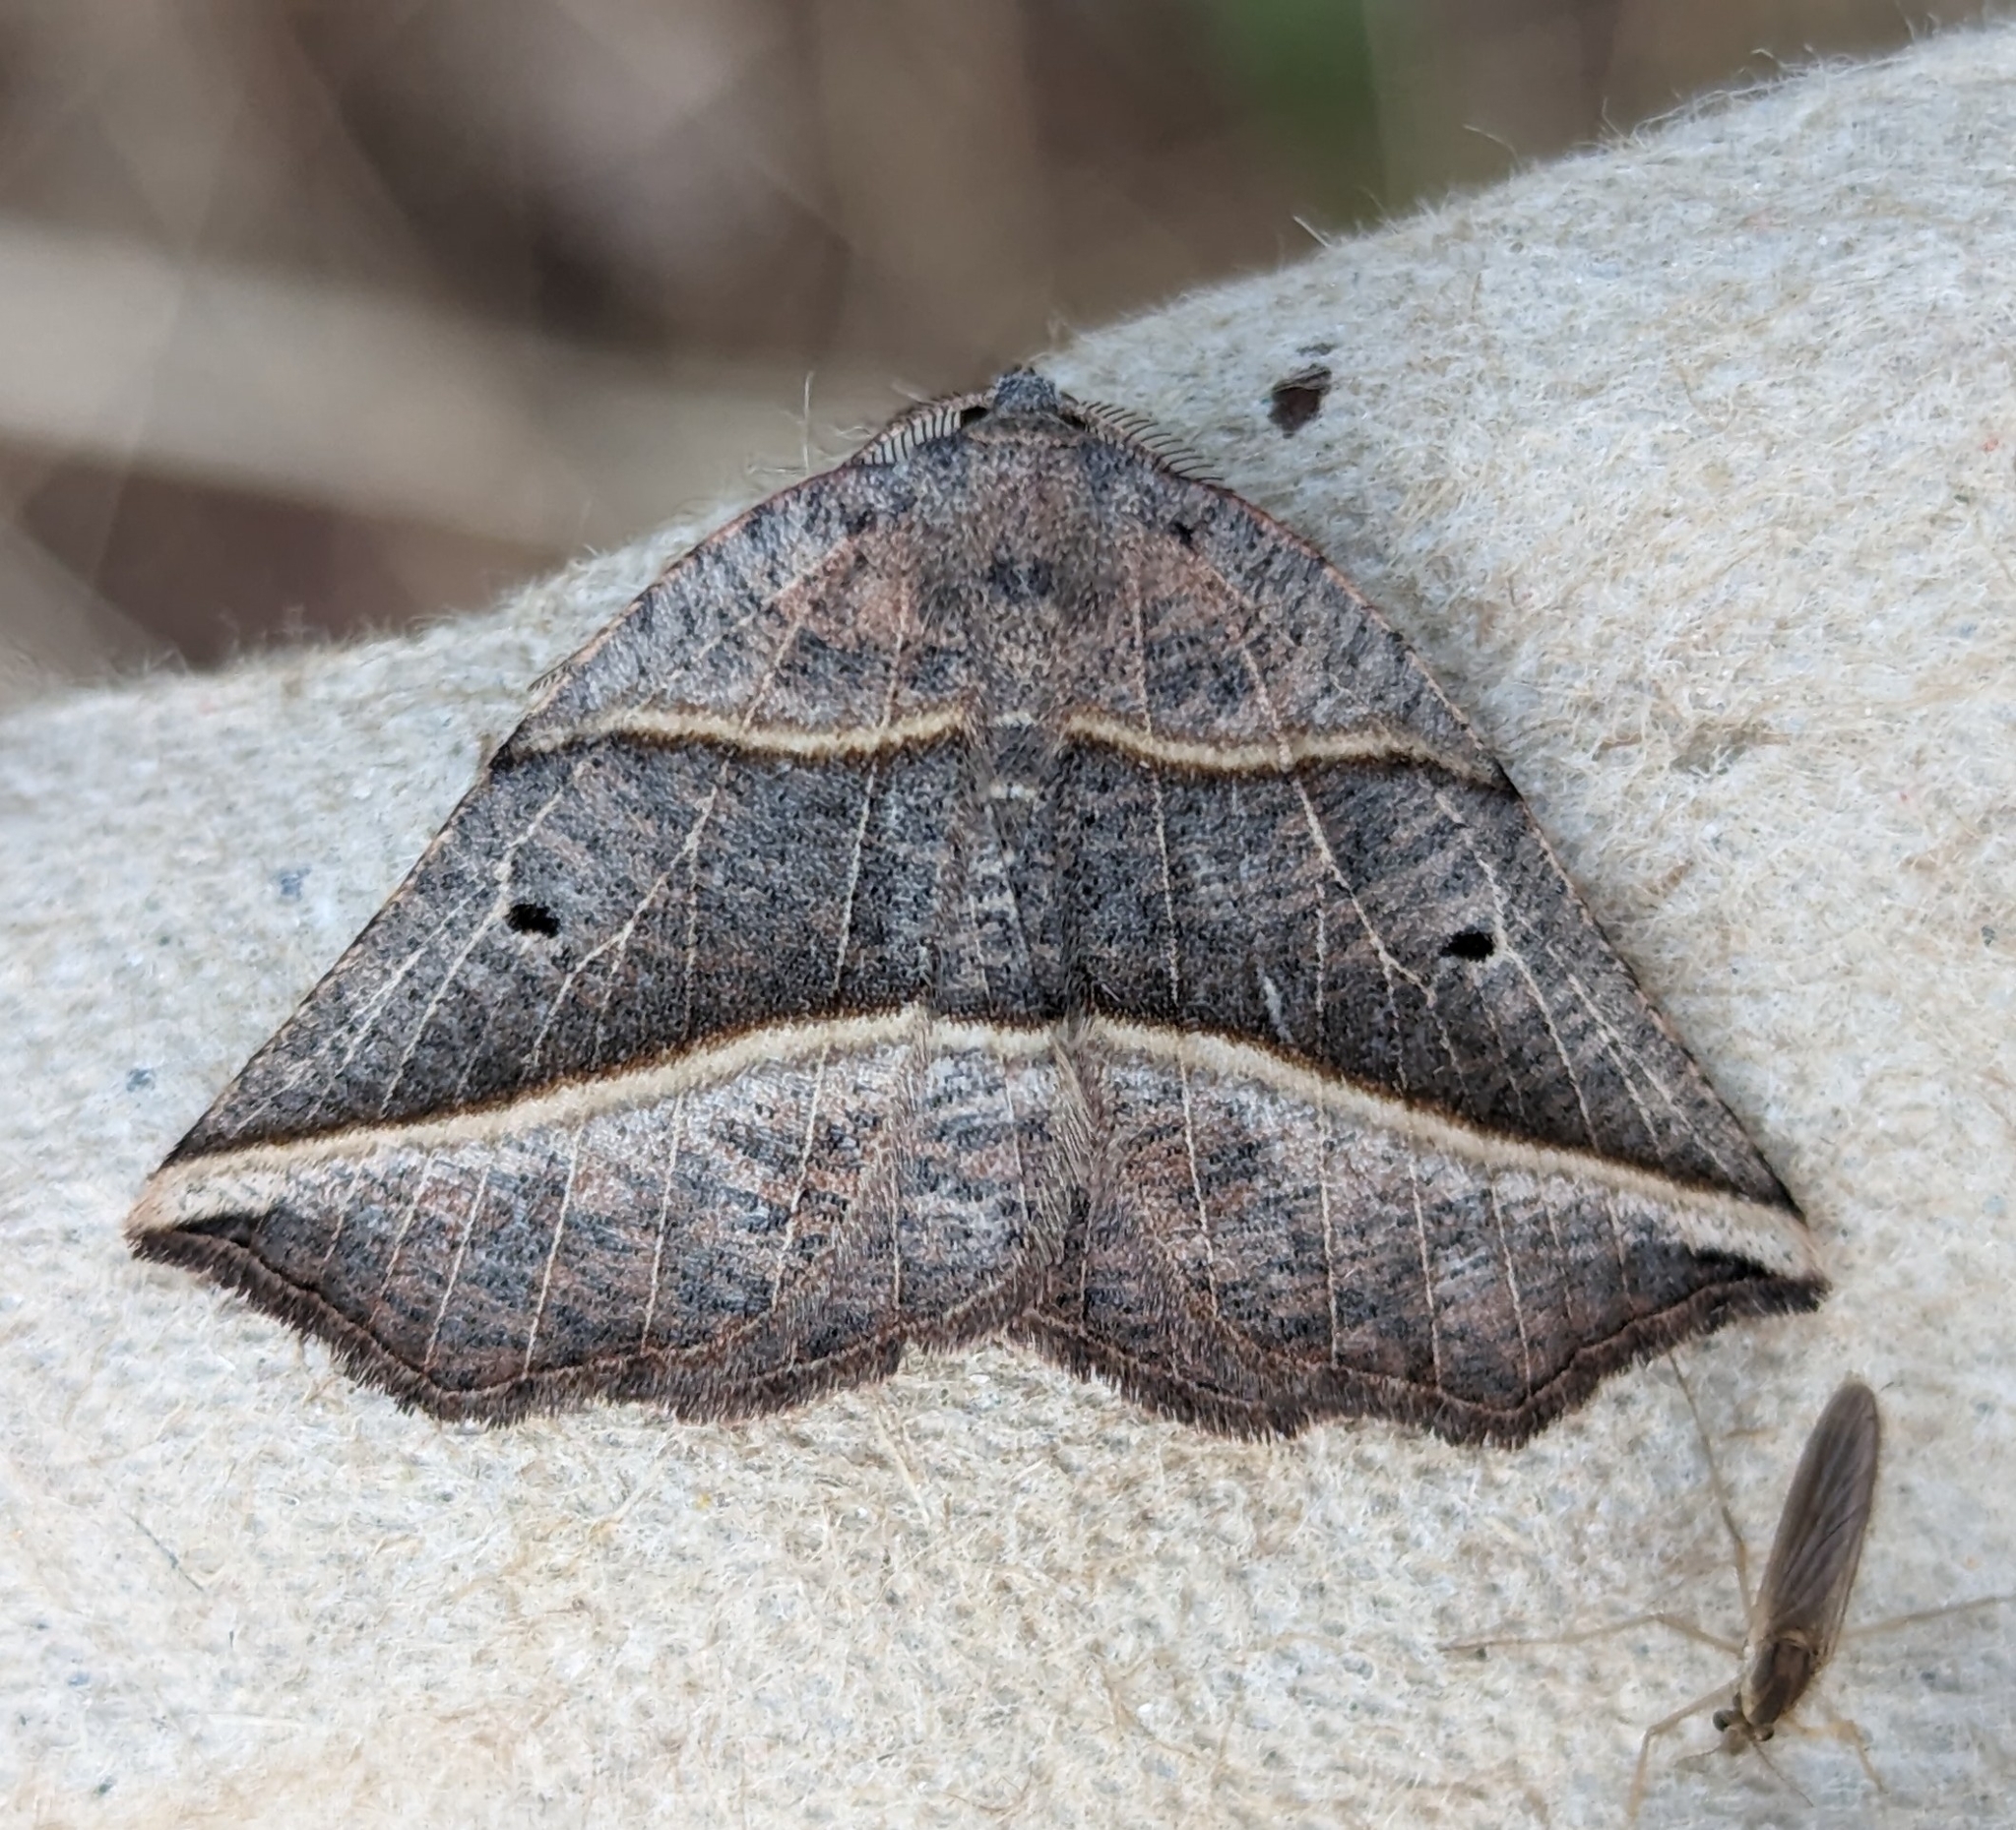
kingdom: Animalia
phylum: Arthropoda
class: Insecta
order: Lepidoptera
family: Geometridae
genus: Metanema
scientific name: Metanema determinata
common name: Dark metanema
